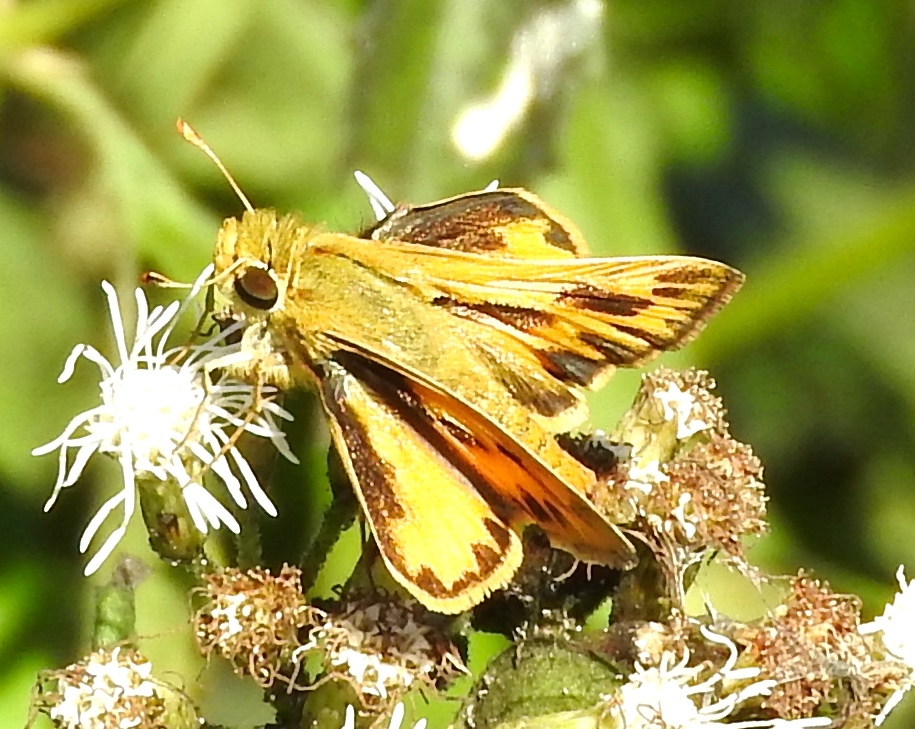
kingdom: Animalia
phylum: Arthropoda
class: Insecta
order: Lepidoptera
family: Hesperiidae
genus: Hylephila
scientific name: Hylephila phyleus
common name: Fiery skipper
